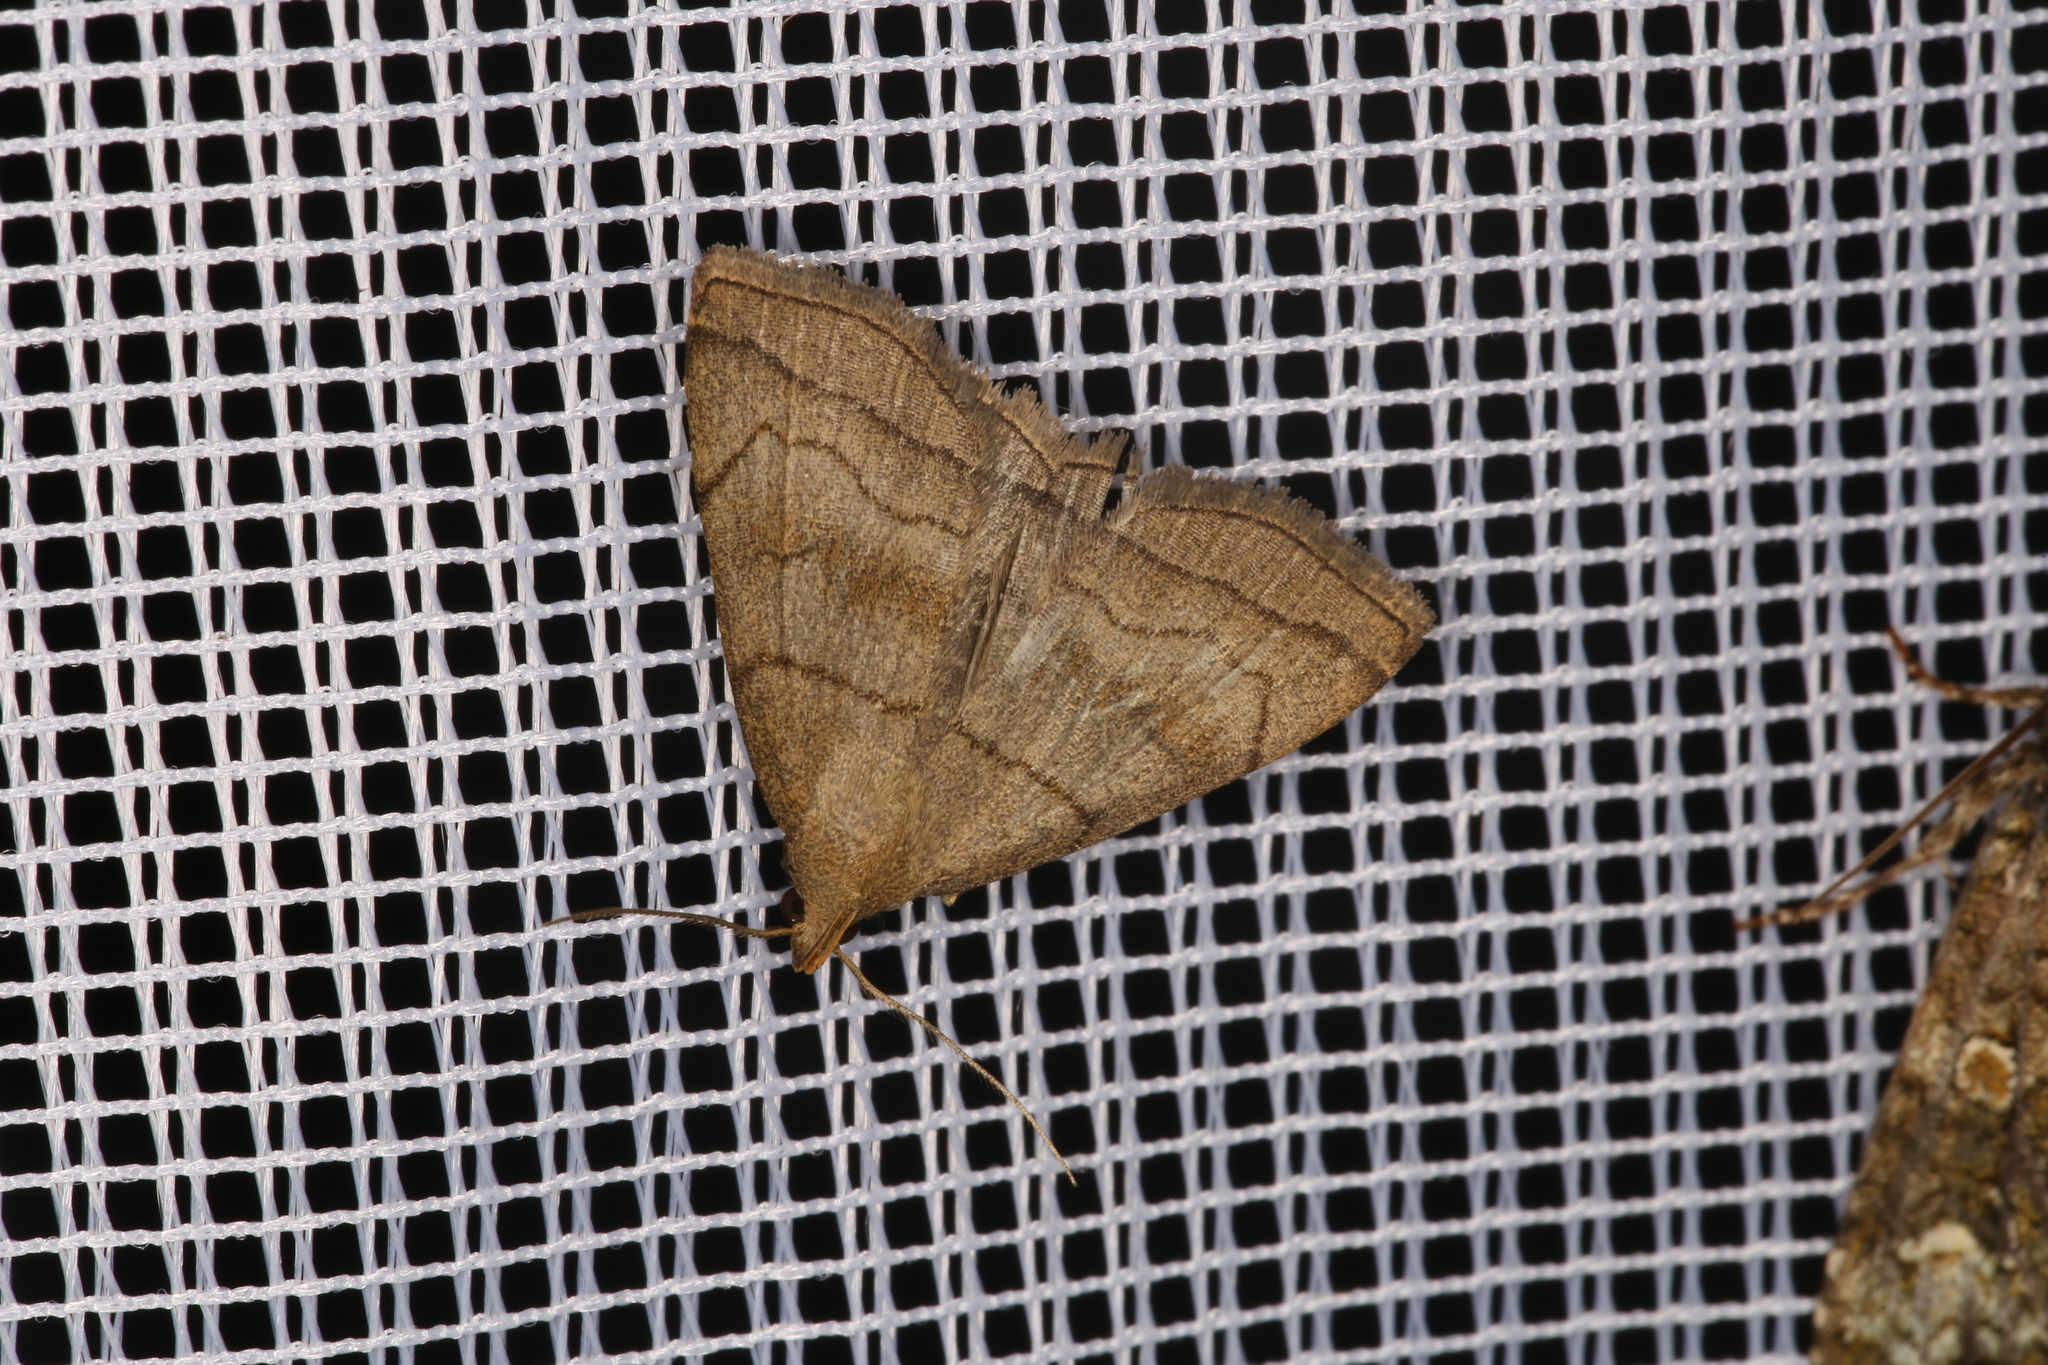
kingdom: Animalia
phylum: Arthropoda
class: Insecta
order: Lepidoptera
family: Erebidae
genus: Herminia
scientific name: Herminia tarsicrinalis
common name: Shaded fan-foot
